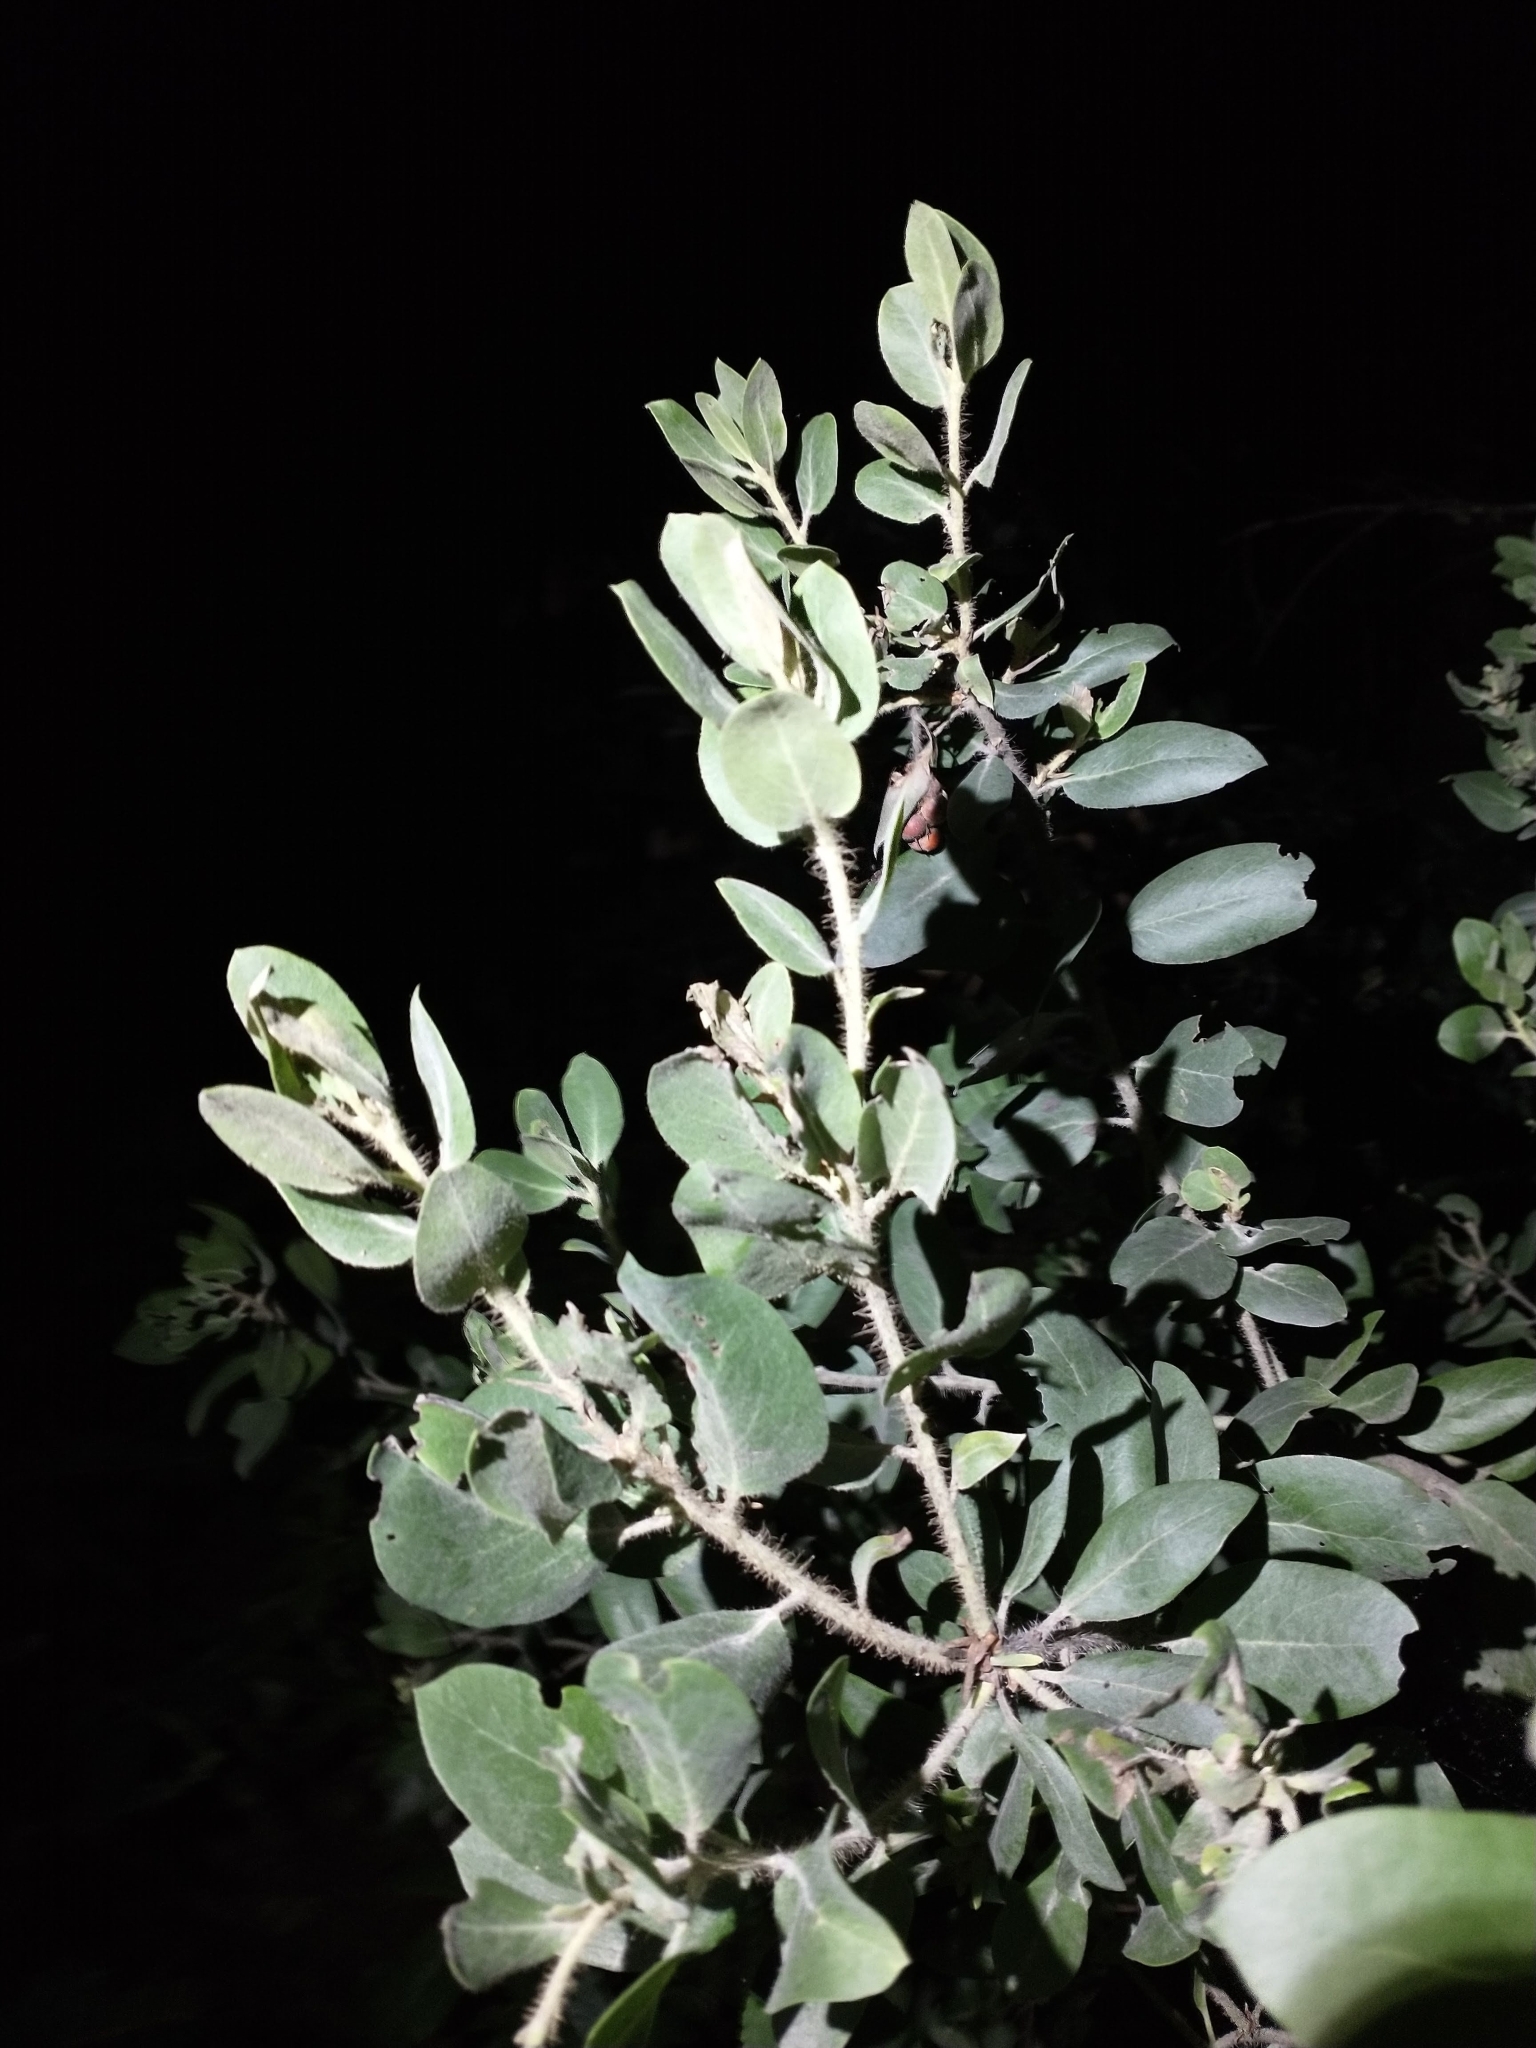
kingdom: Plantae
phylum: Tracheophyta
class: Magnoliopsida
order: Ericales
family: Ericaceae
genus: Arctostaphylos
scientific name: Arctostaphylos columbiana
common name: Bristly bearberry
